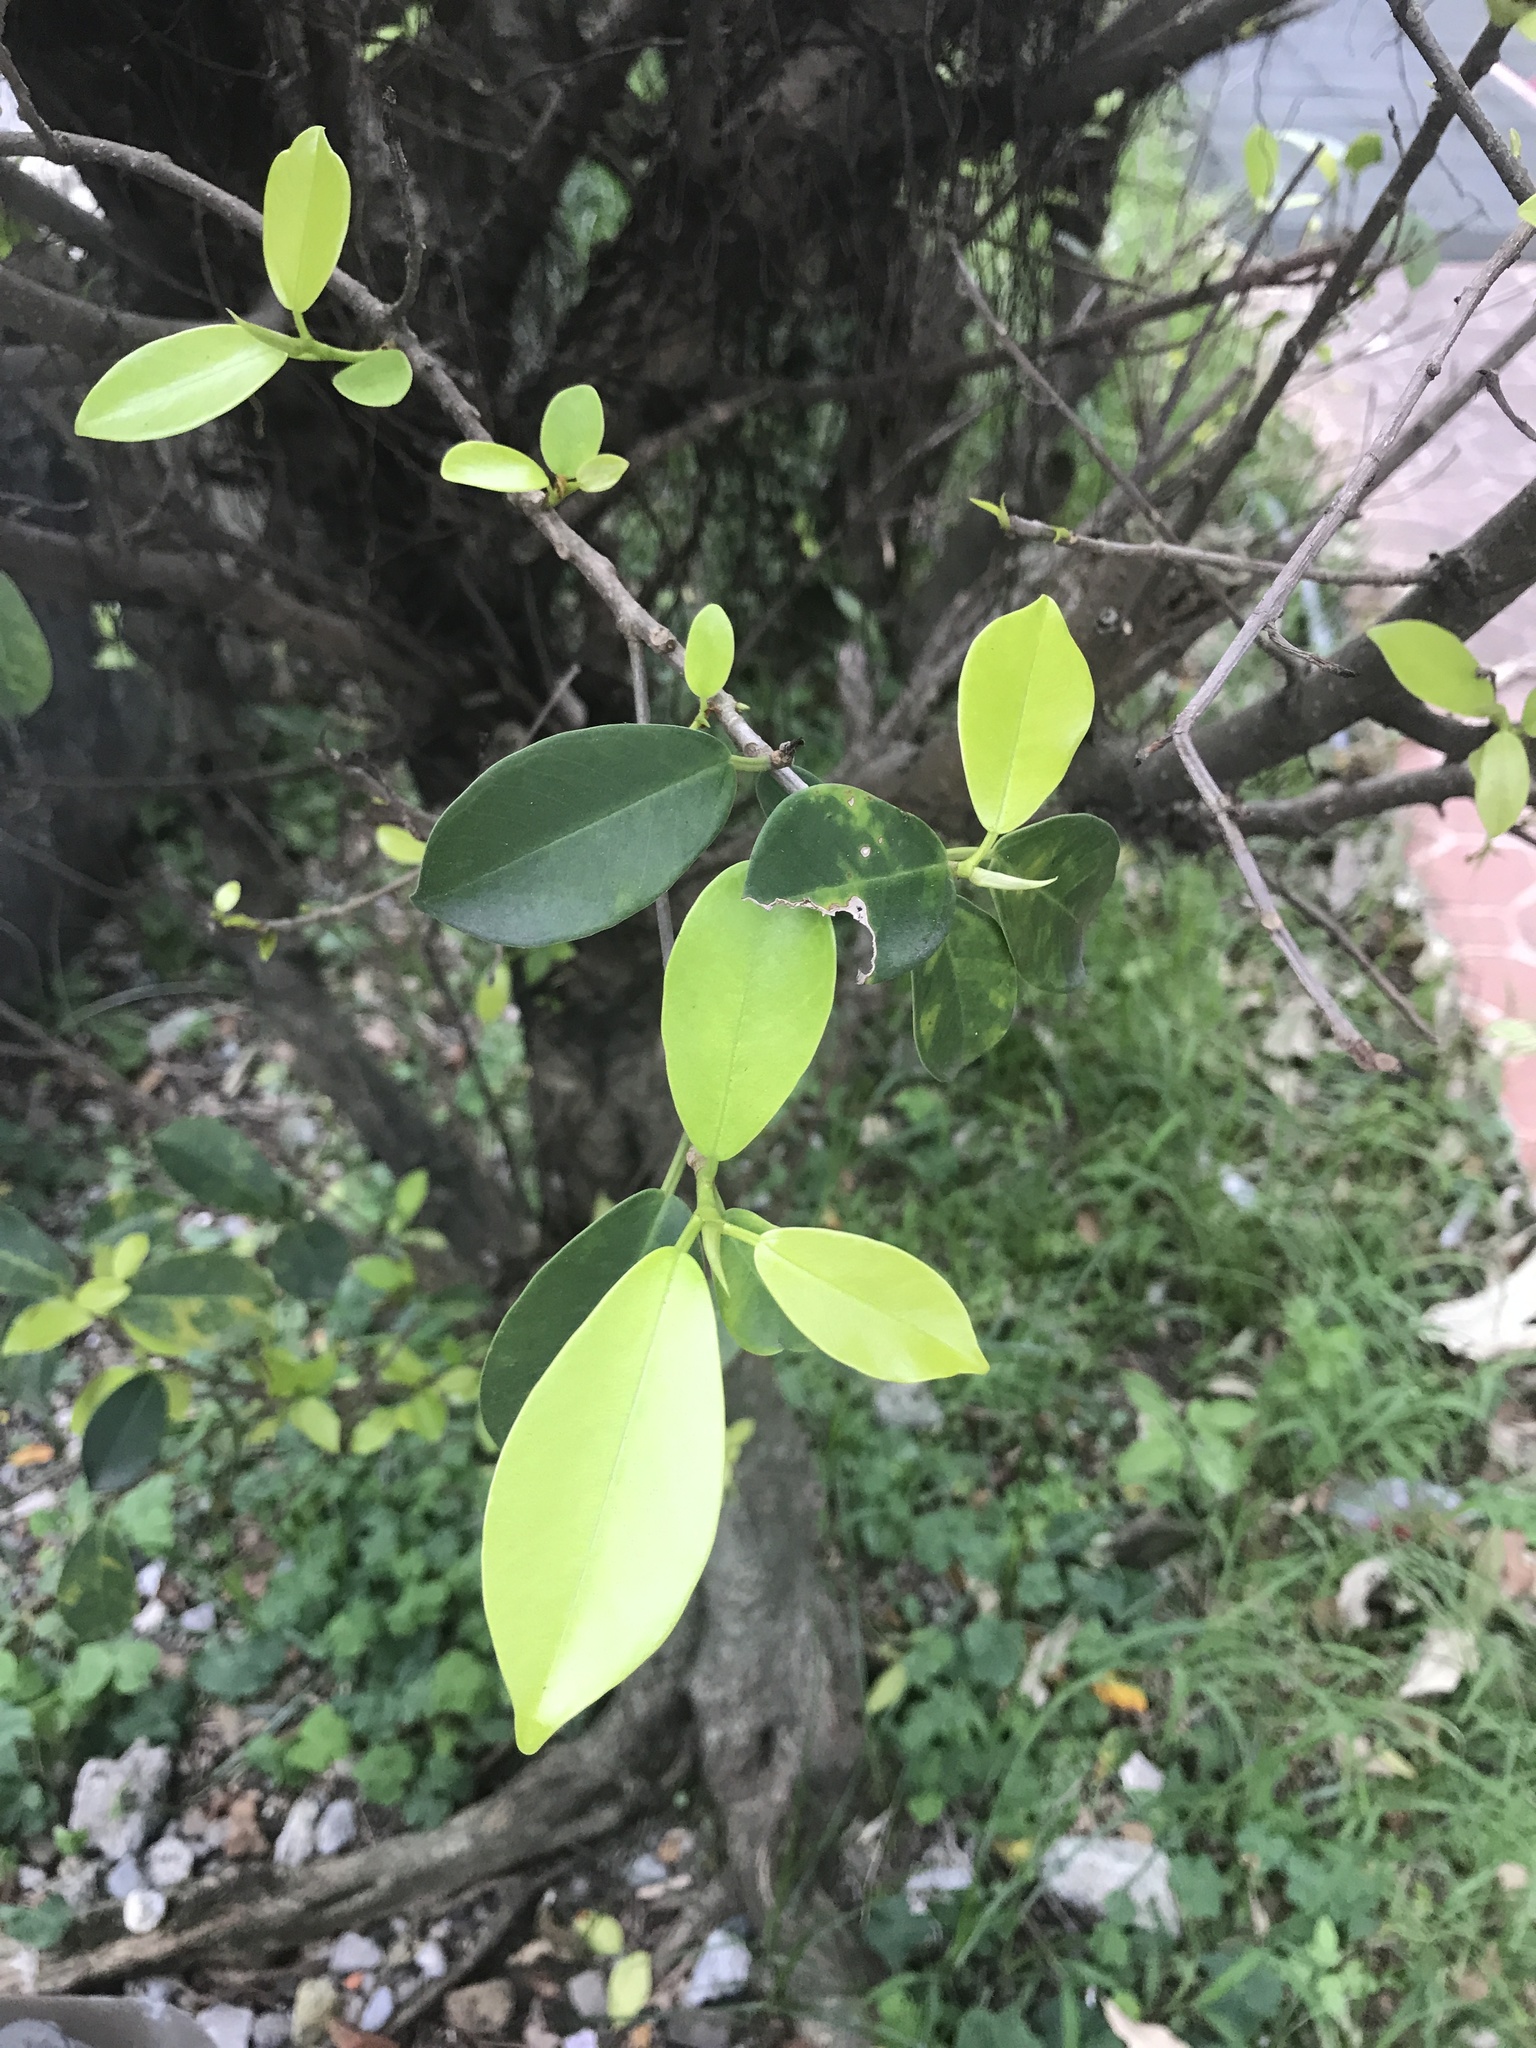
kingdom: Plantae
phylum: Tracheophyta
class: Magnoliopsida
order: Rosales
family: Moraceae
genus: Ficus
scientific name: Ficus microcarpa
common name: Chinese banyan
